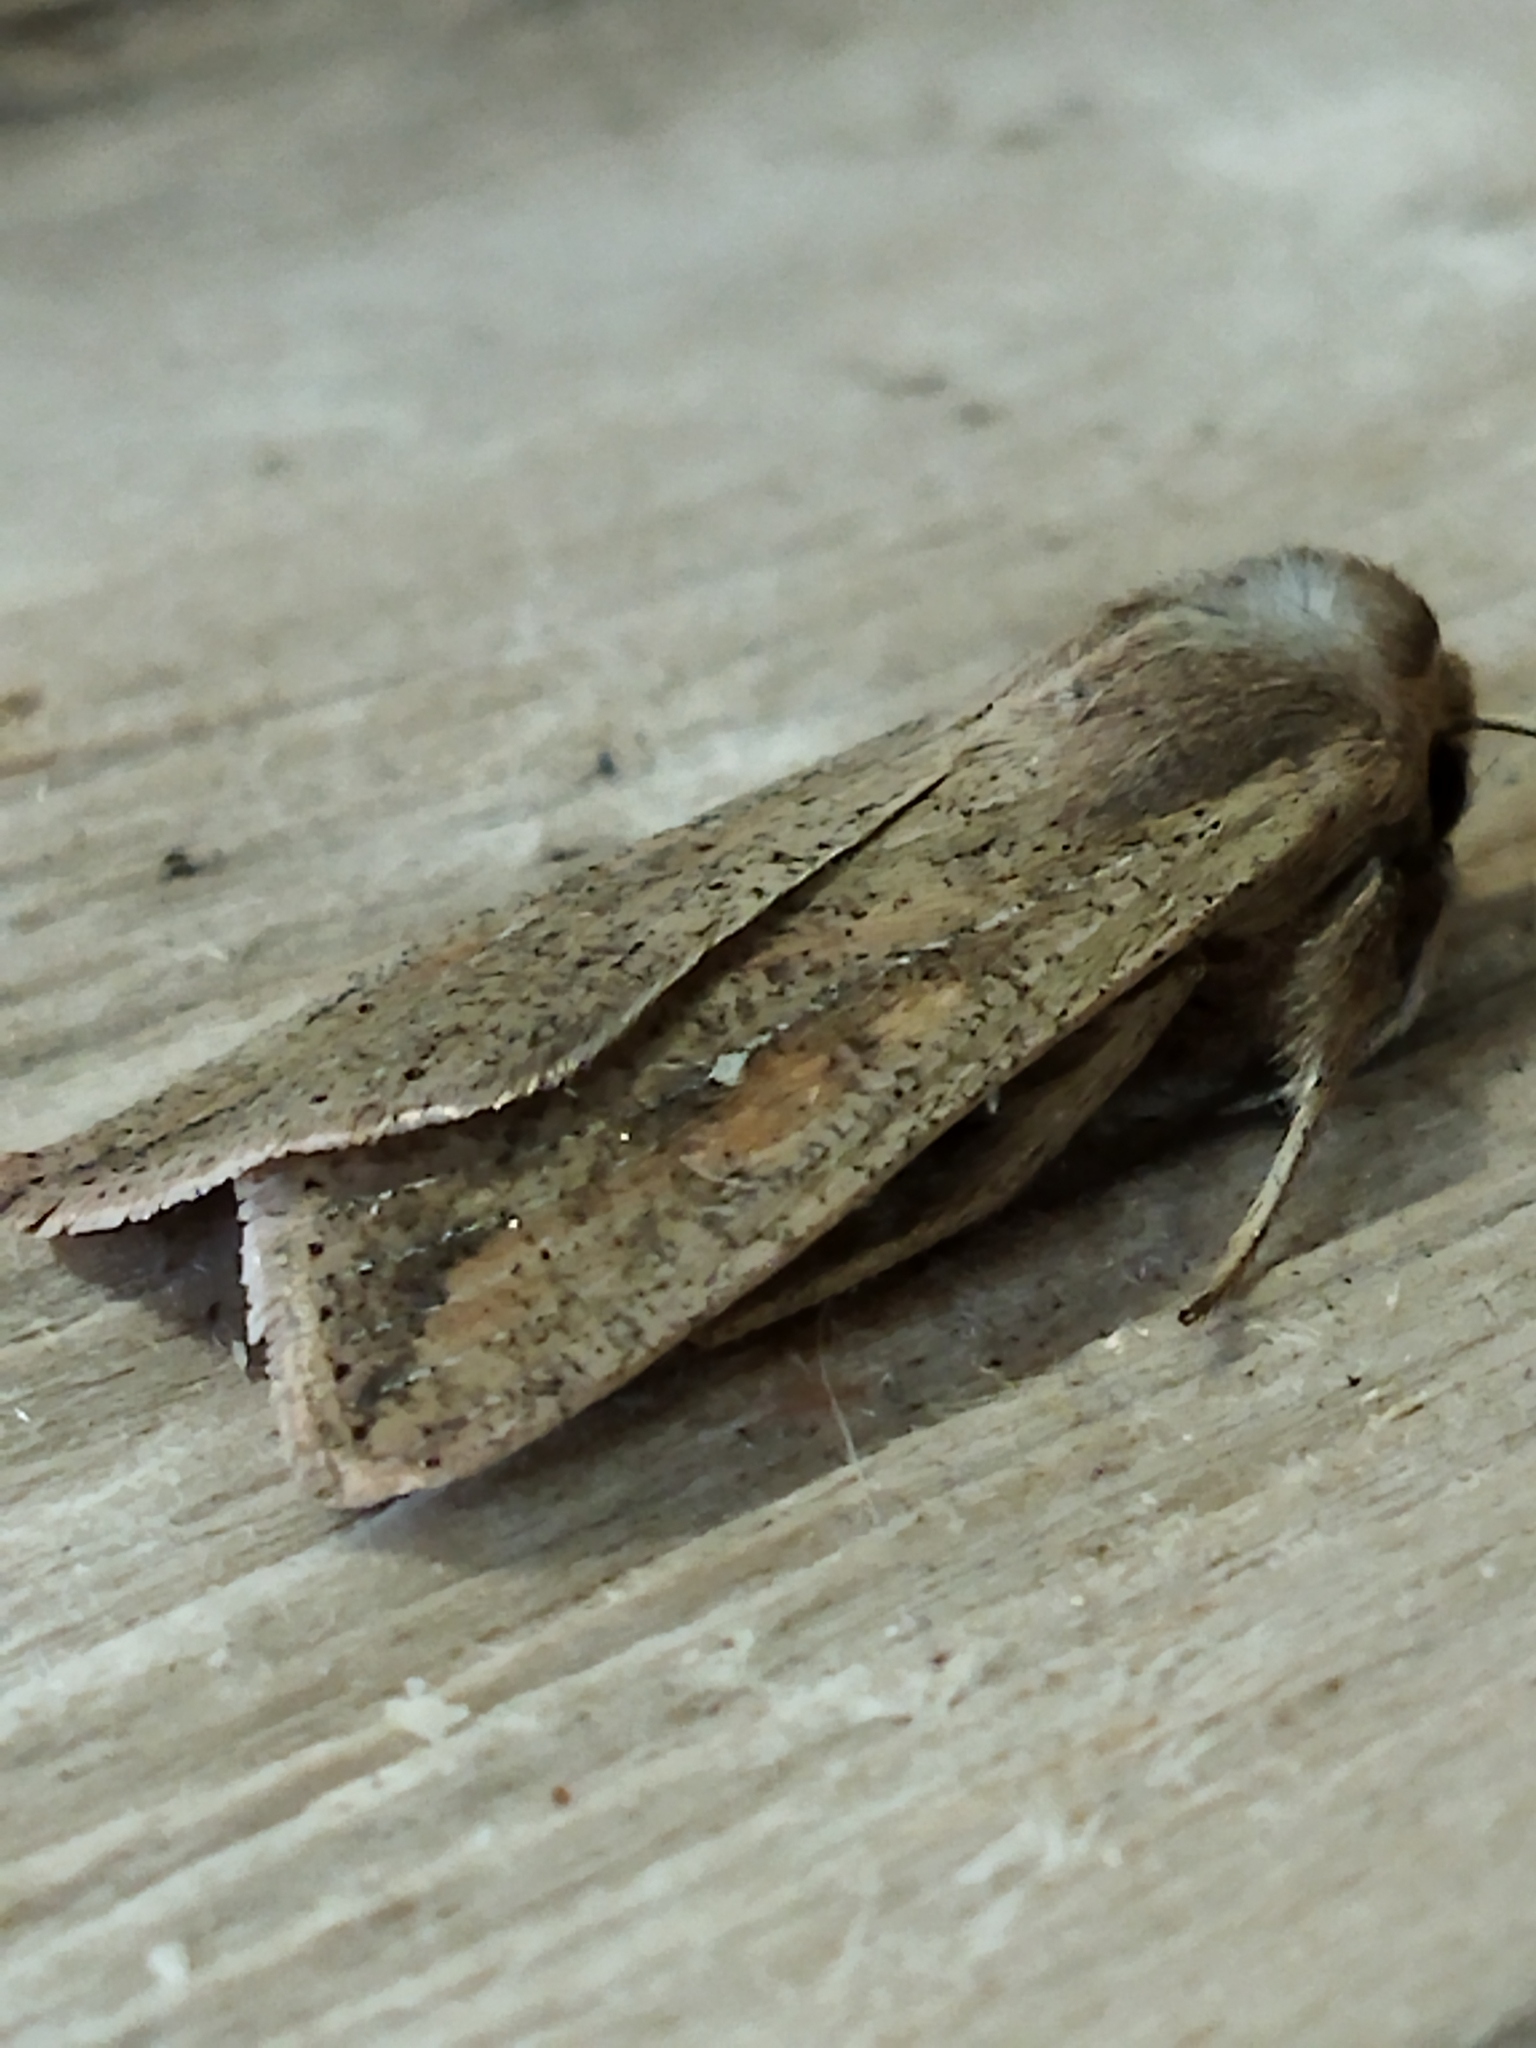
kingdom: Animalia
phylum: Arthropoda
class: Insecta
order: Lepidoptera
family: Noctuidae
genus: Mythimna
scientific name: Mythimna unipuncta
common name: White-speck
